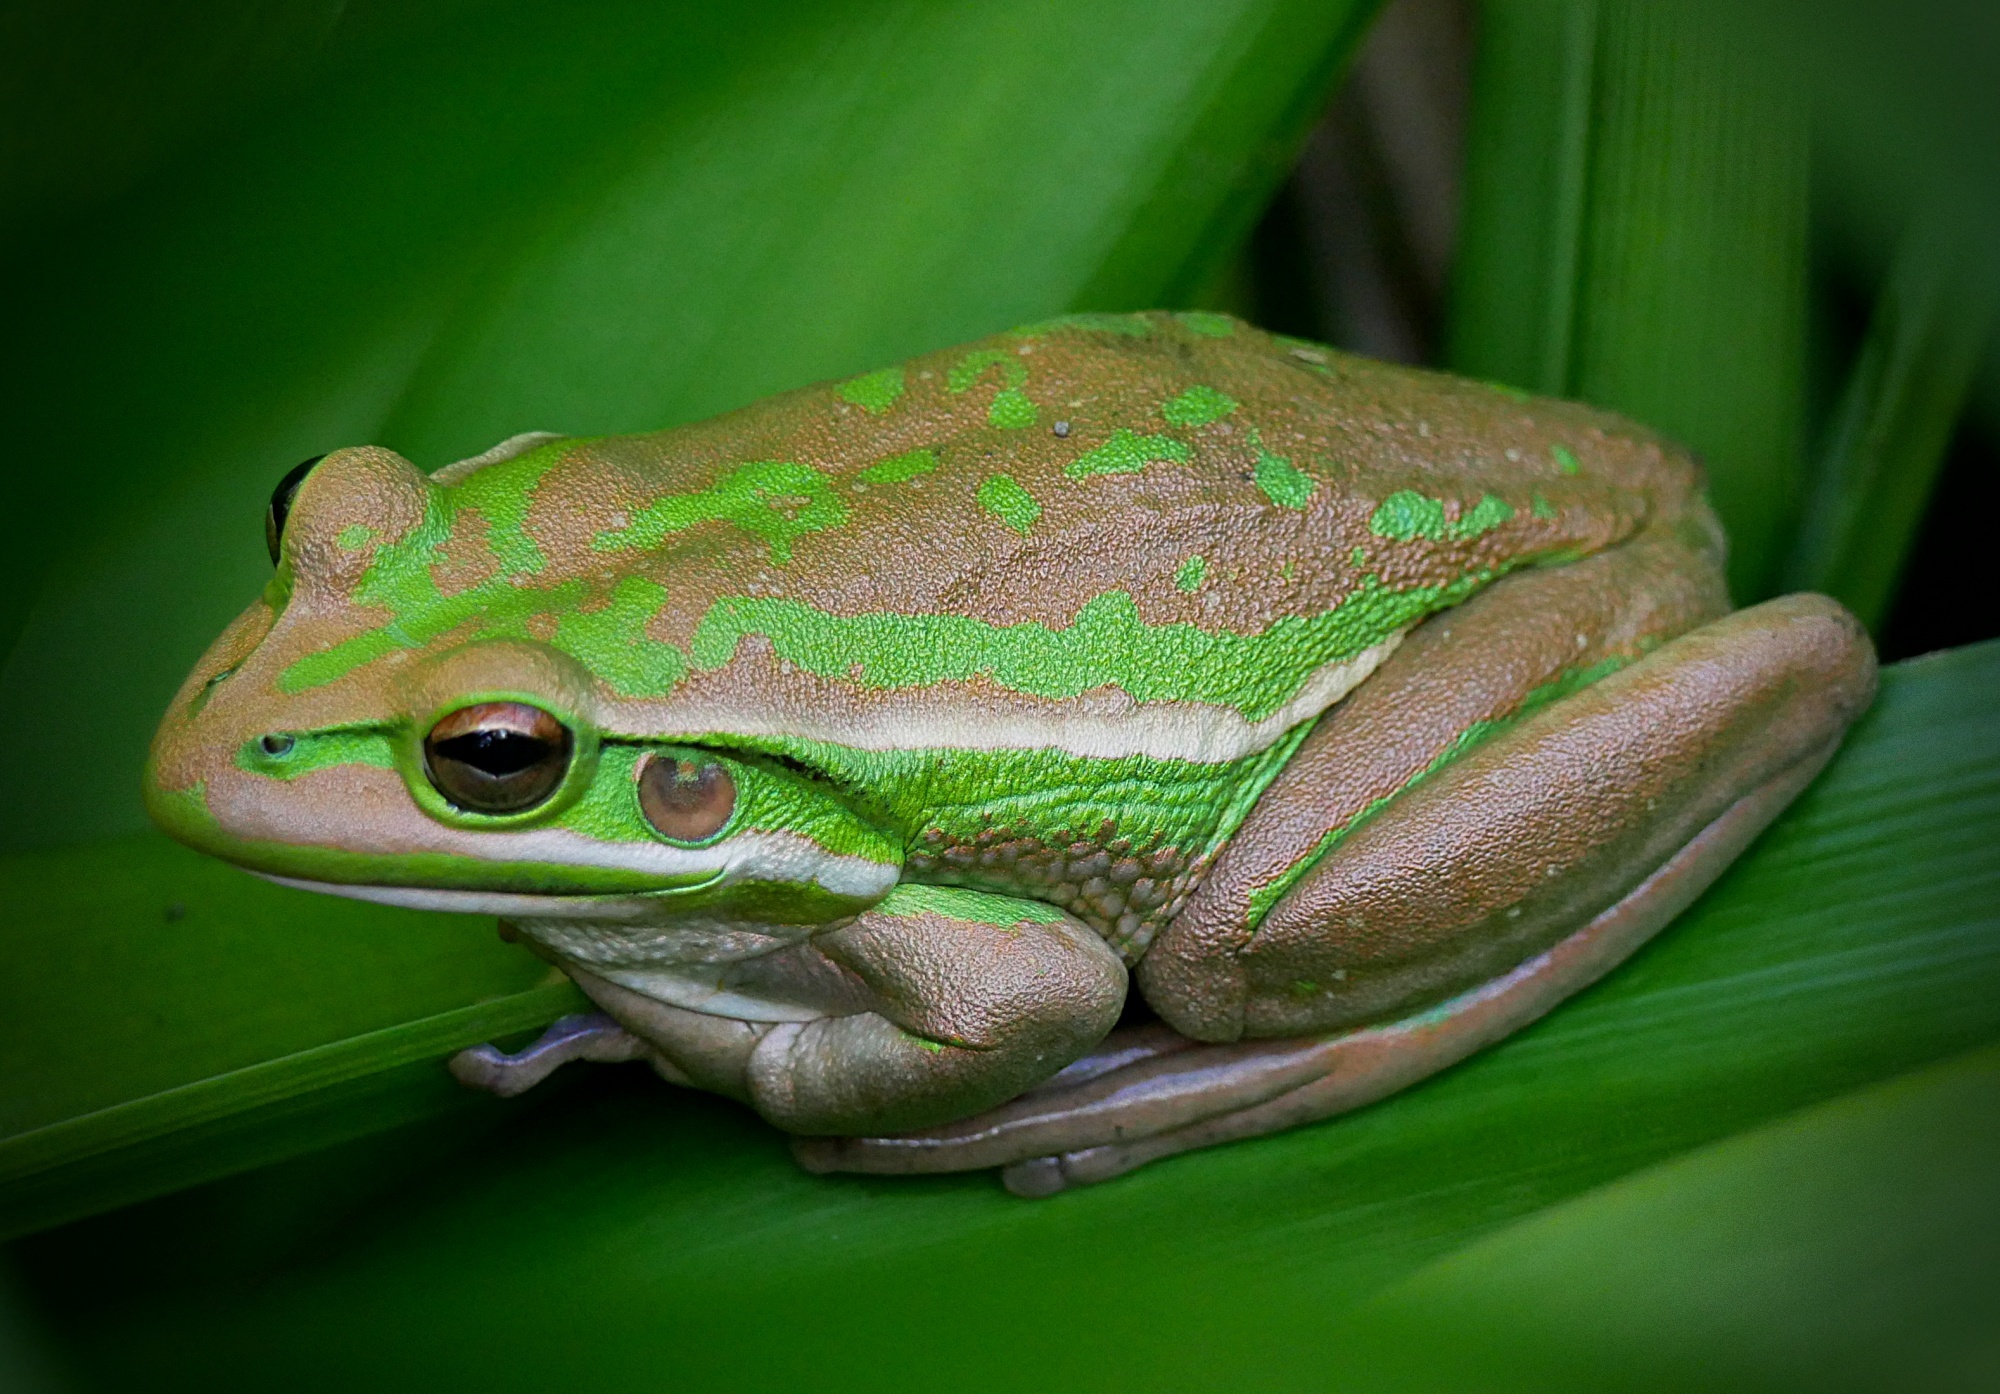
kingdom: Animalia
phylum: Chordata
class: Amphibia
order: Anura
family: Pelodryadidae
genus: Ranoidea
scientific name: Ranoidea aurea
